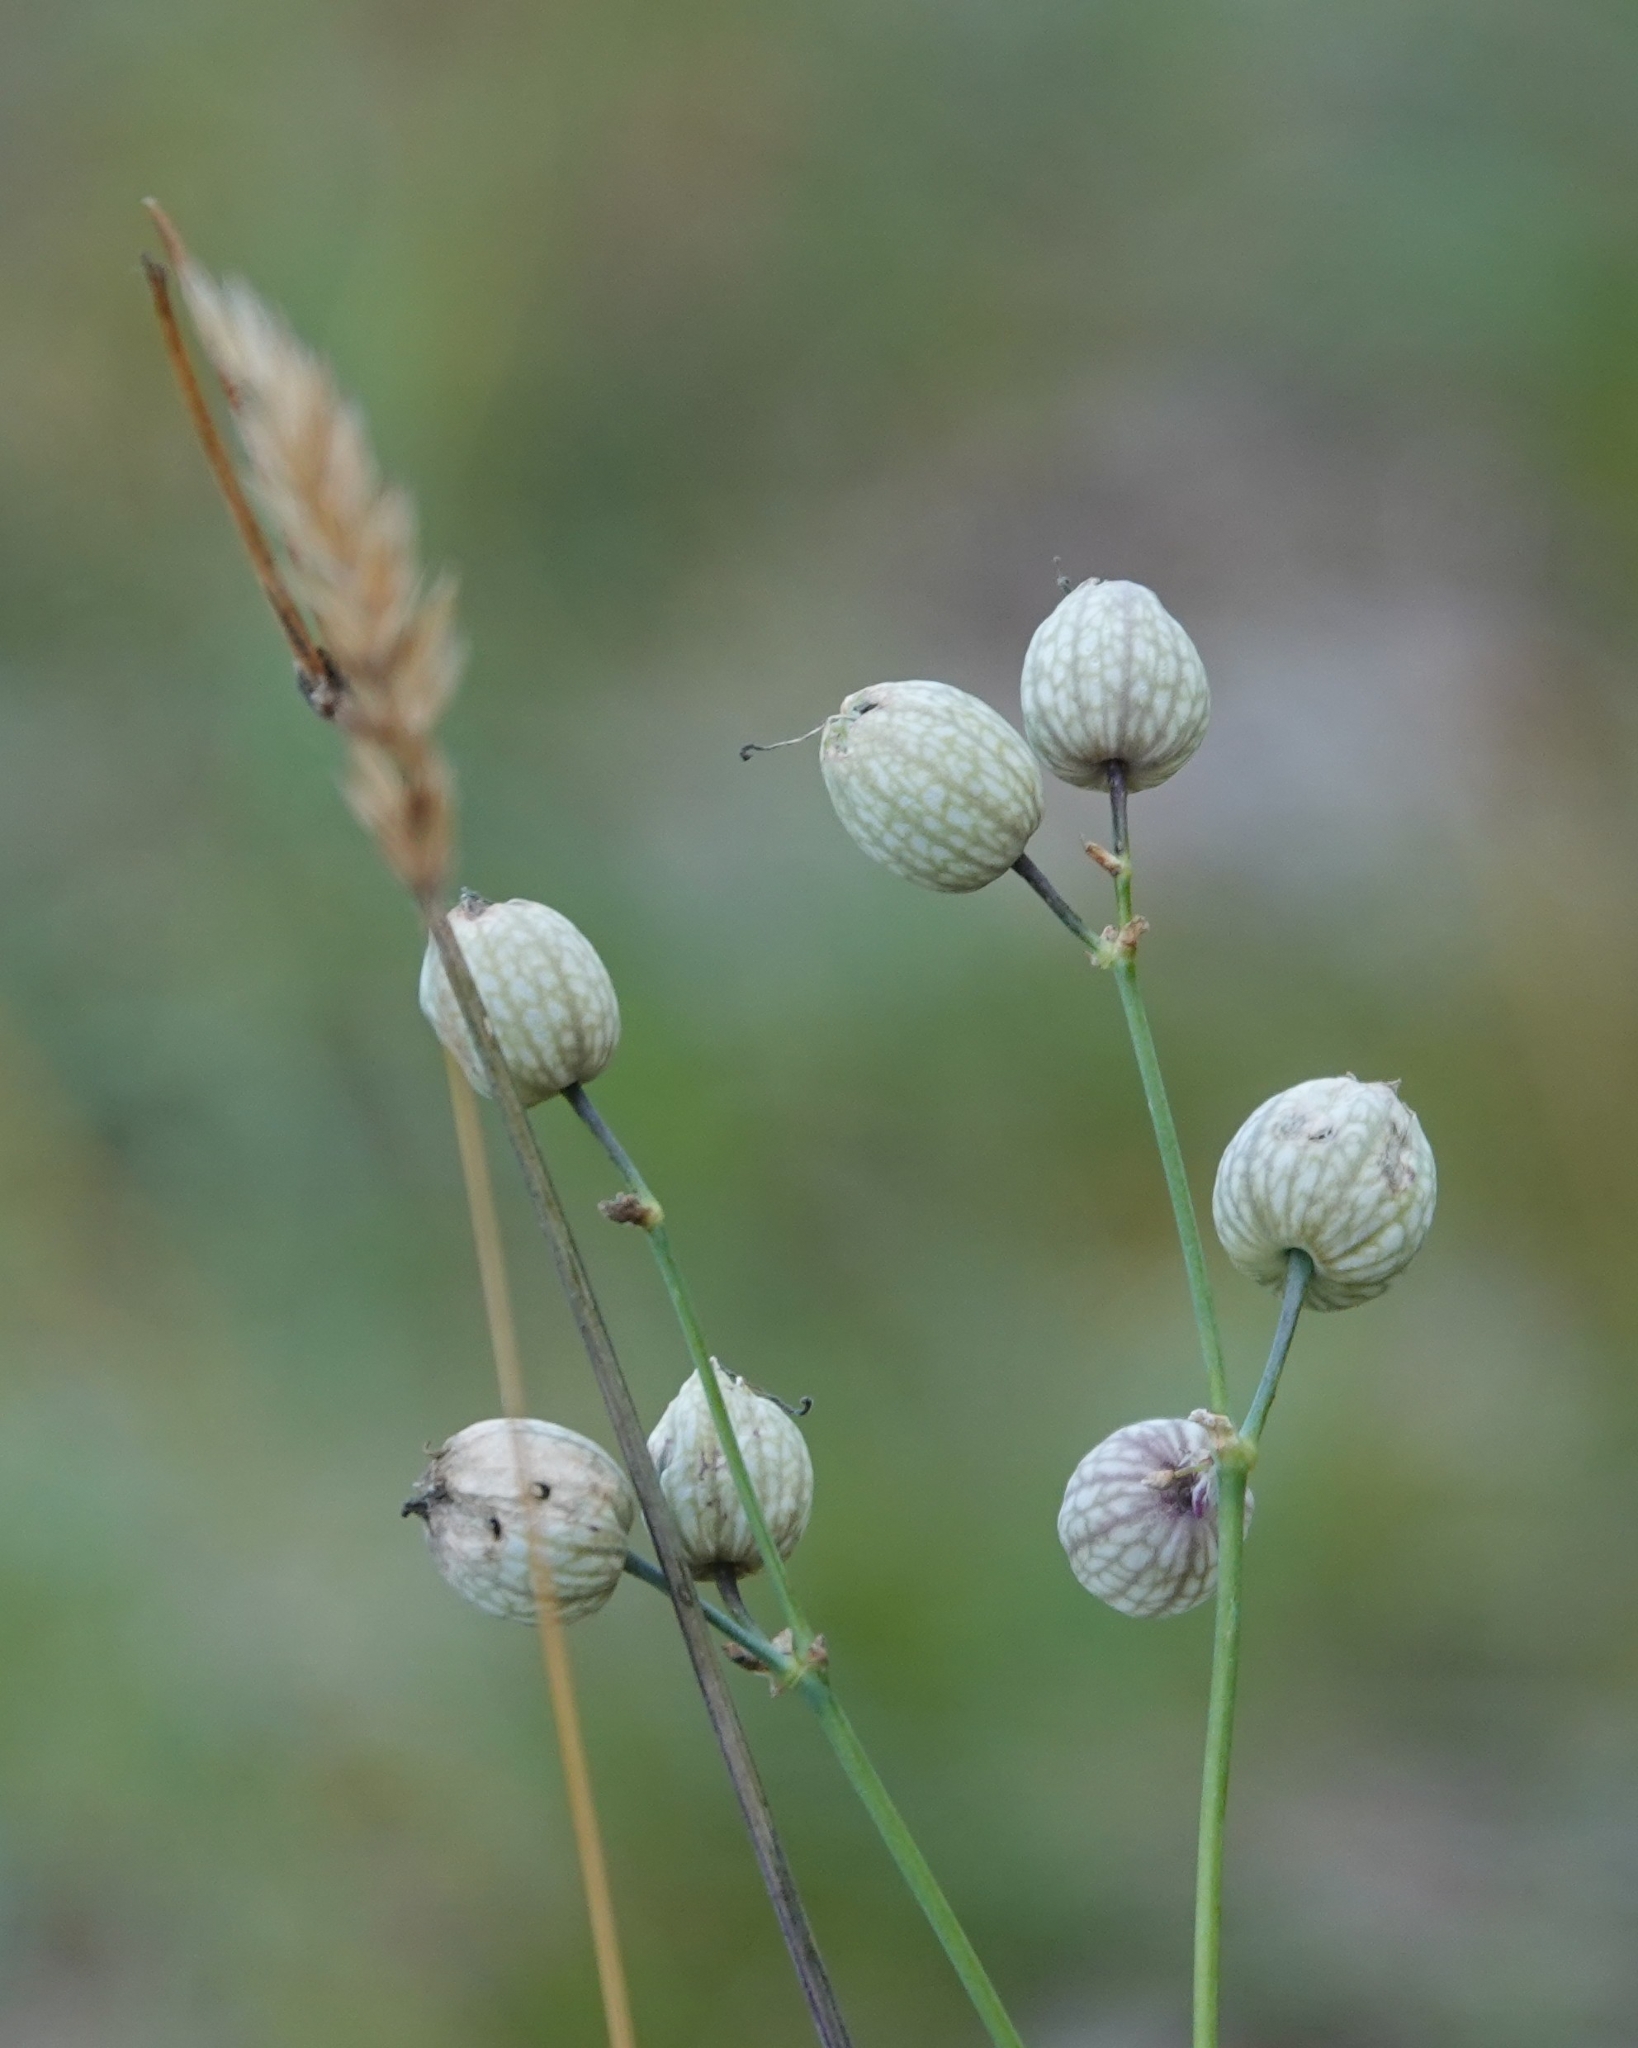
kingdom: Plantae
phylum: Tracheophyta
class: Magnoliopsida
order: Caryophyllales
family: Caryophyllaceae
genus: Silene
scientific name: Silene vulgaris
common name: Bladder campion
